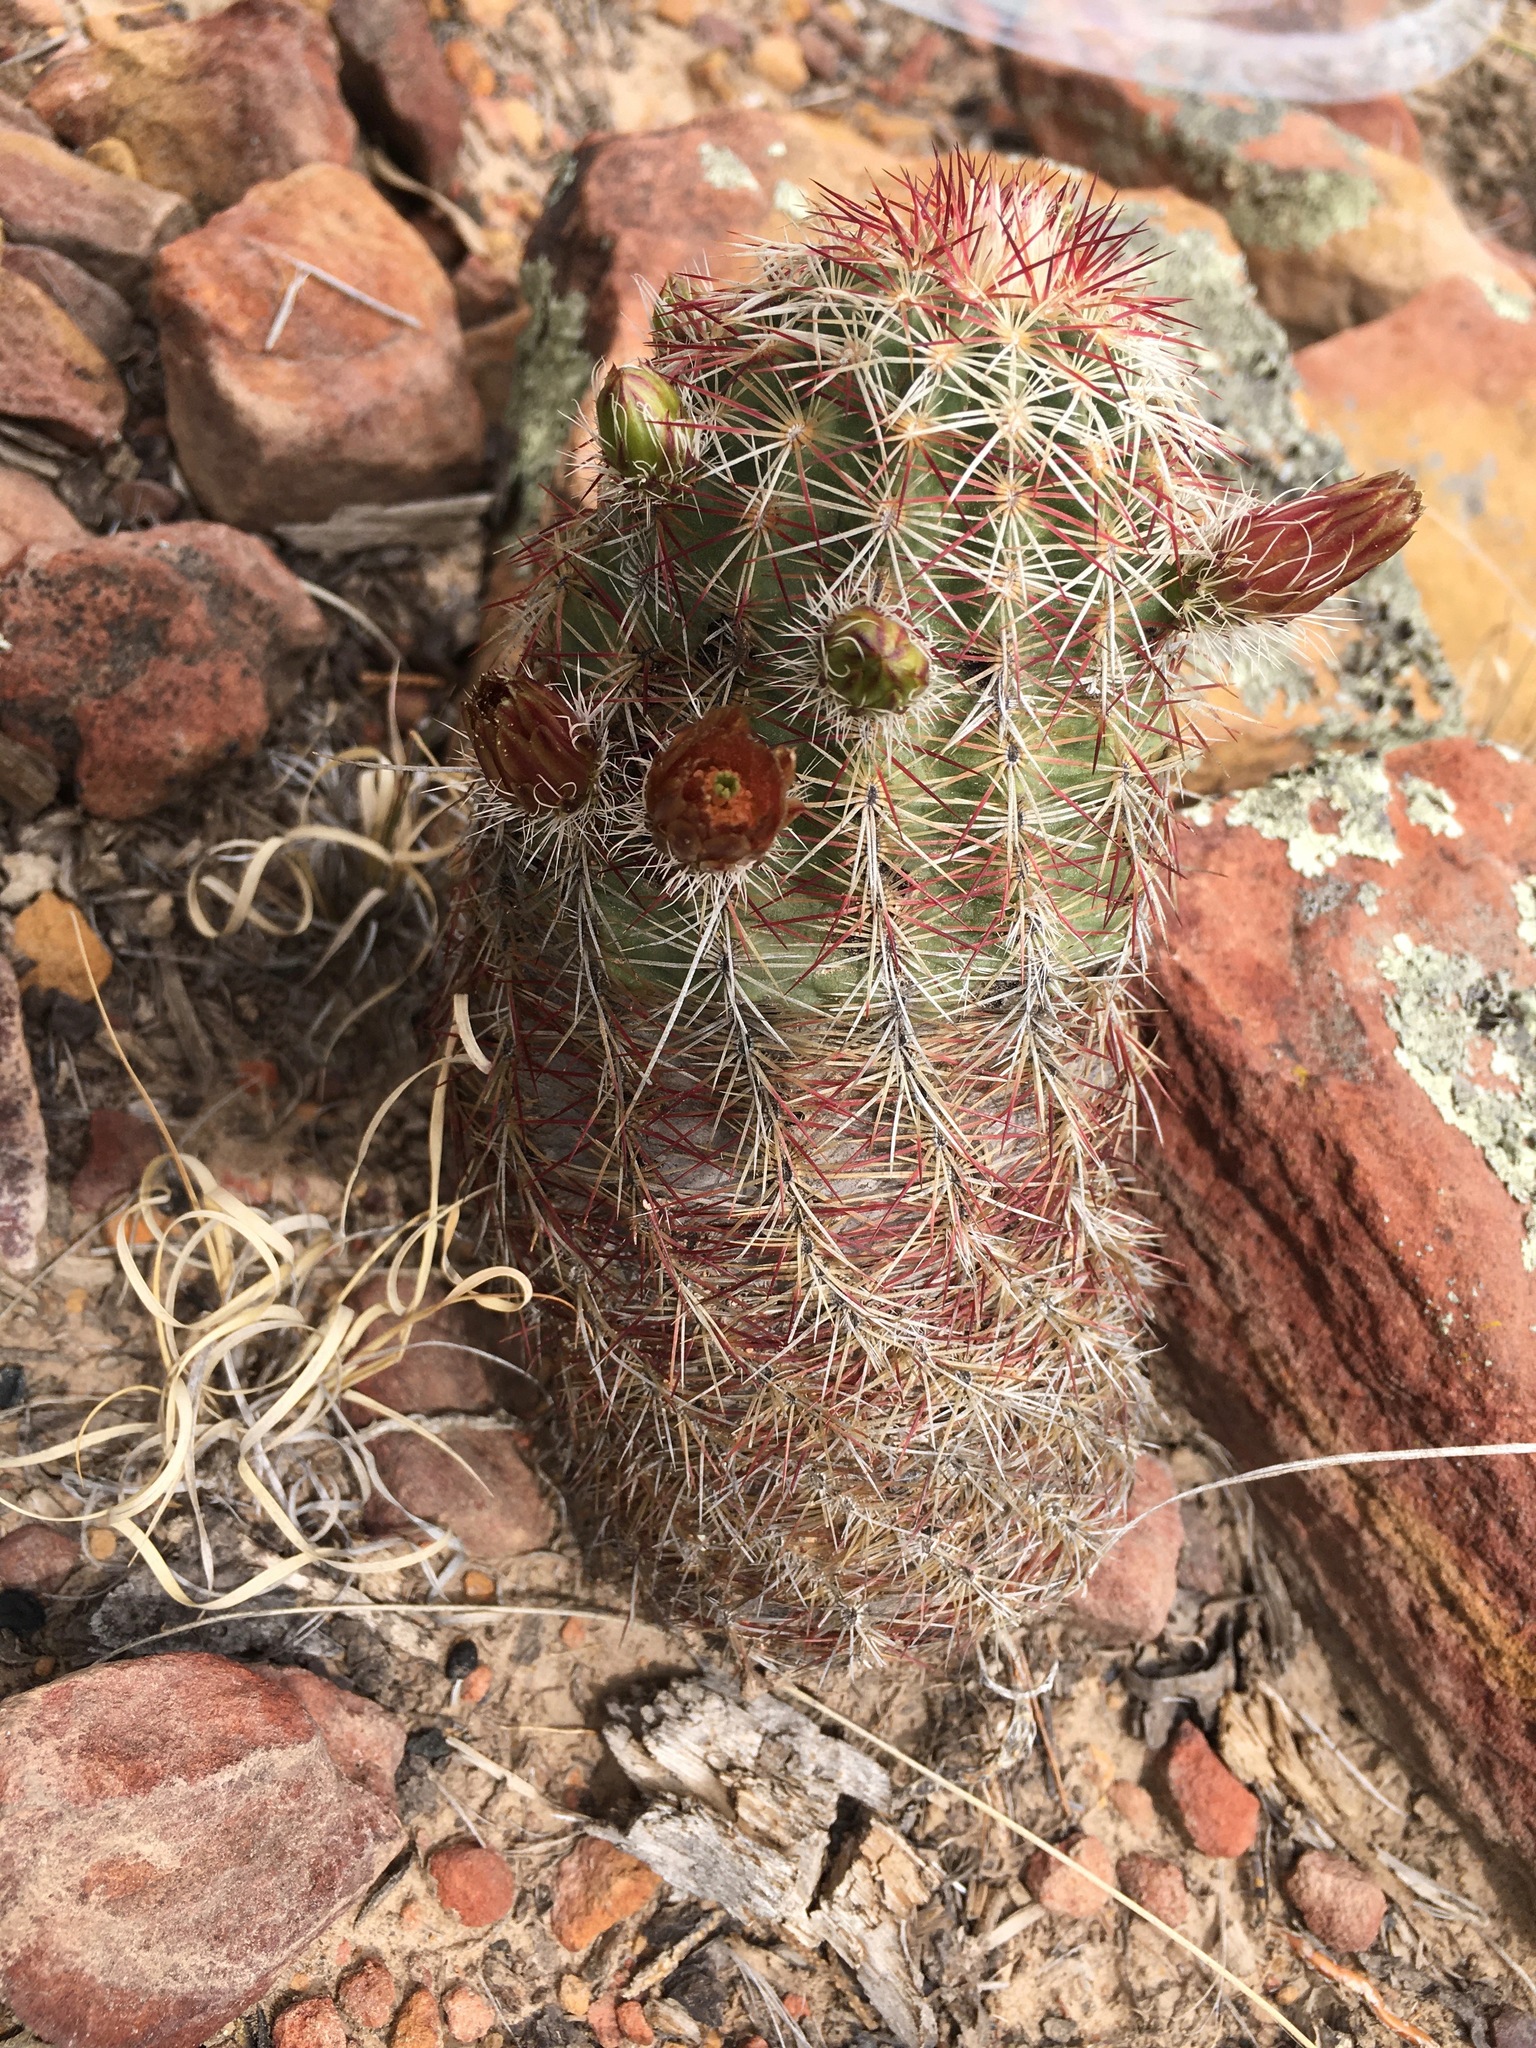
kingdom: Plantae
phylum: Tracheophyta
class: Magnoliopsida
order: Caryophyllales
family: Cactaceae
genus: Echinocereus
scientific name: Echinocereus viridiflorus
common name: Nylon hedgehog cactus
